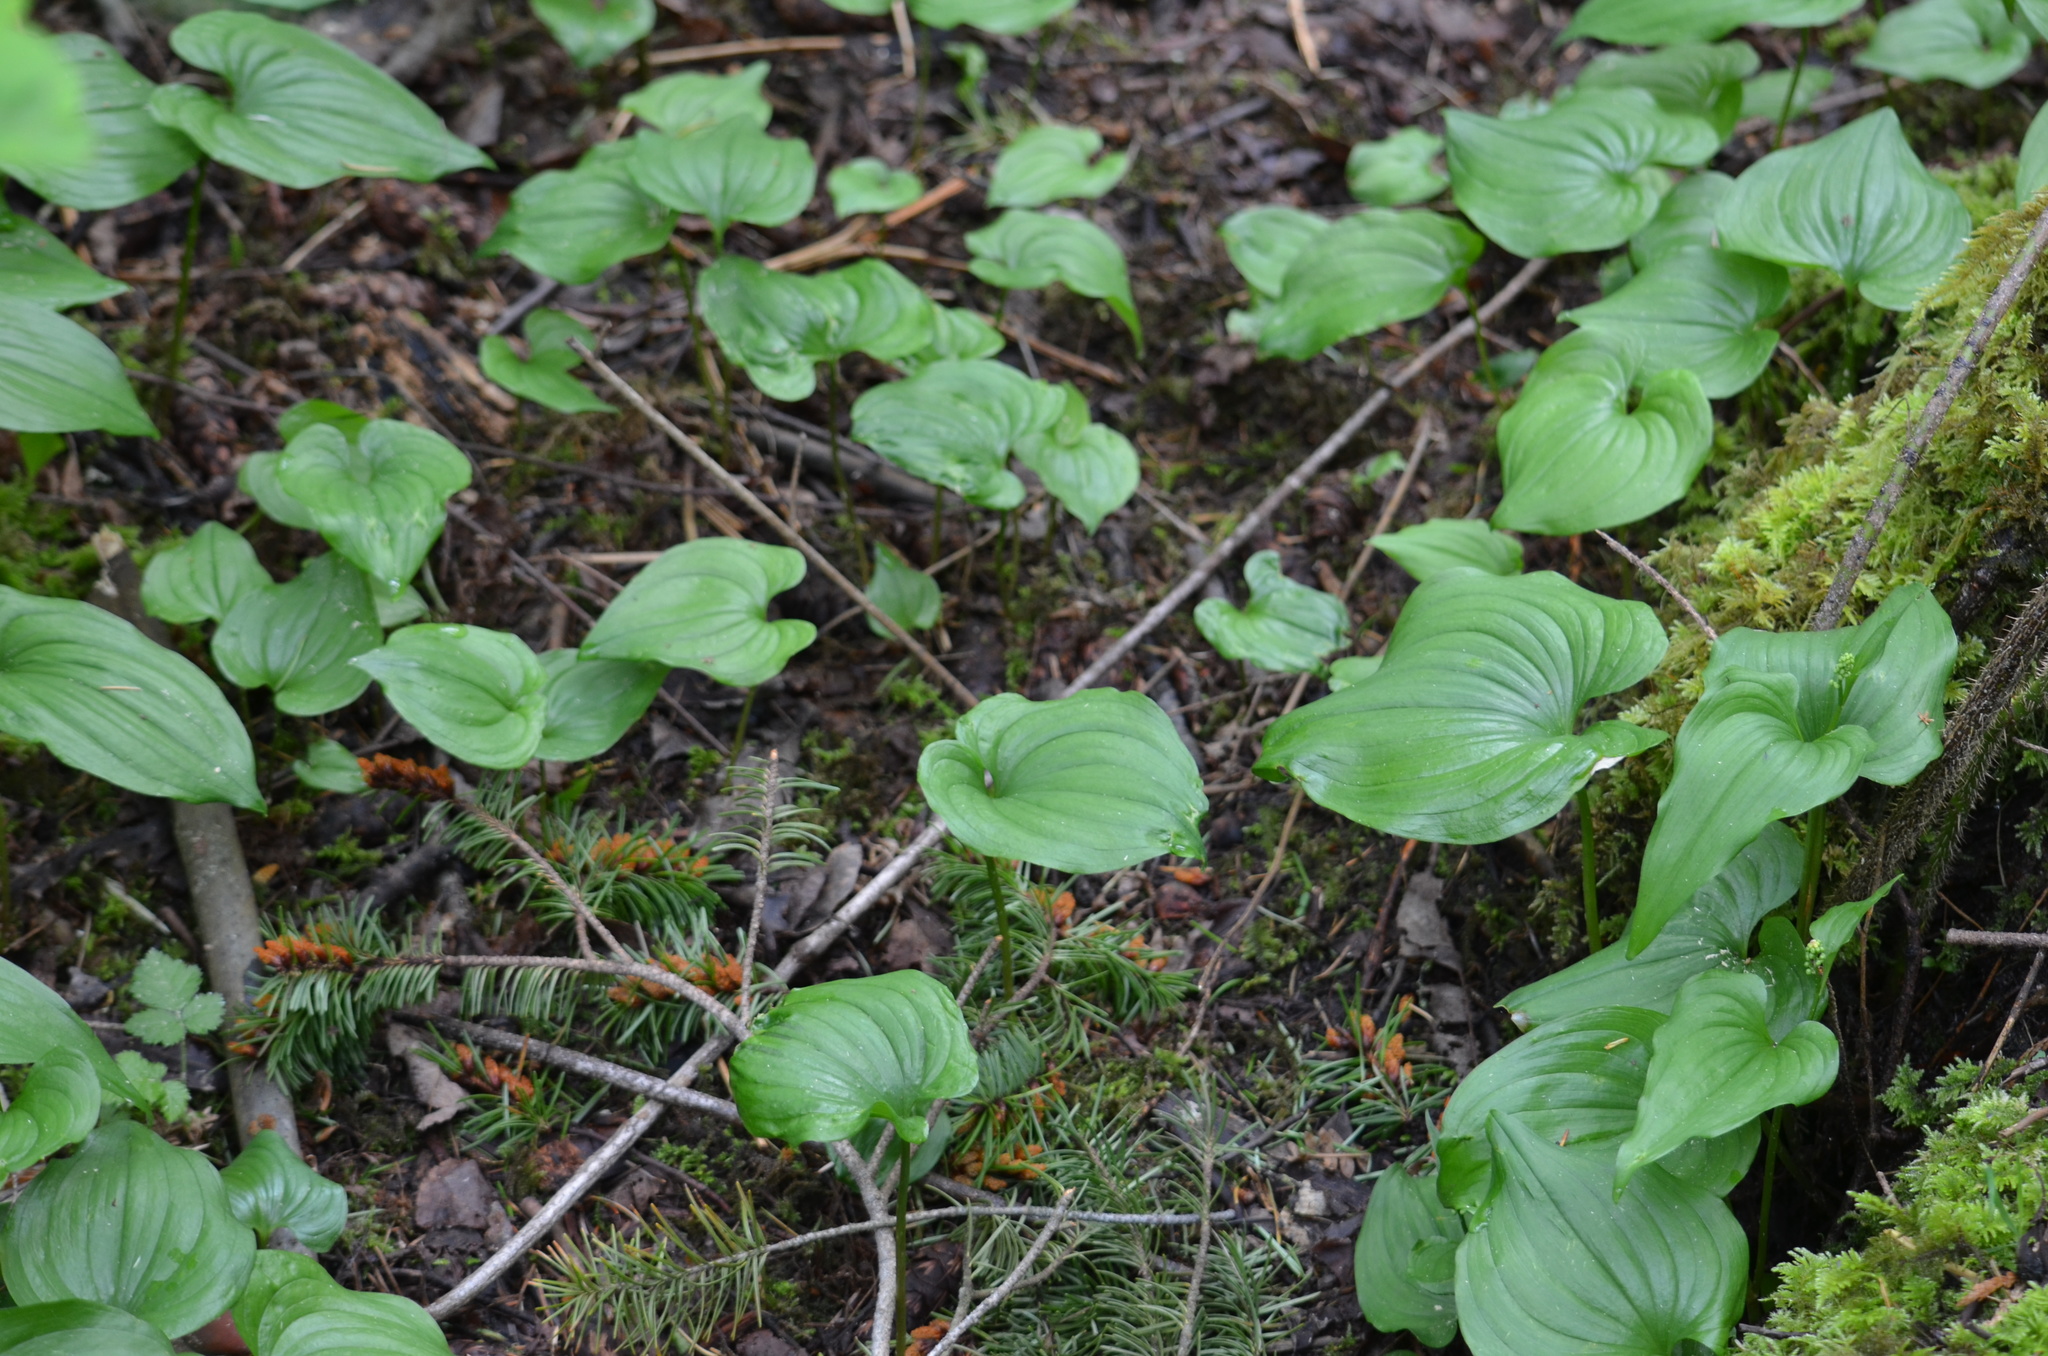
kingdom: Plantae
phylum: Tracheophyta
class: Liliopsida
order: Asparagales
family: Asparagaceae
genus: Maianthemum
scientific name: Maianthemum dilatatum
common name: False lily-of-the-valley
